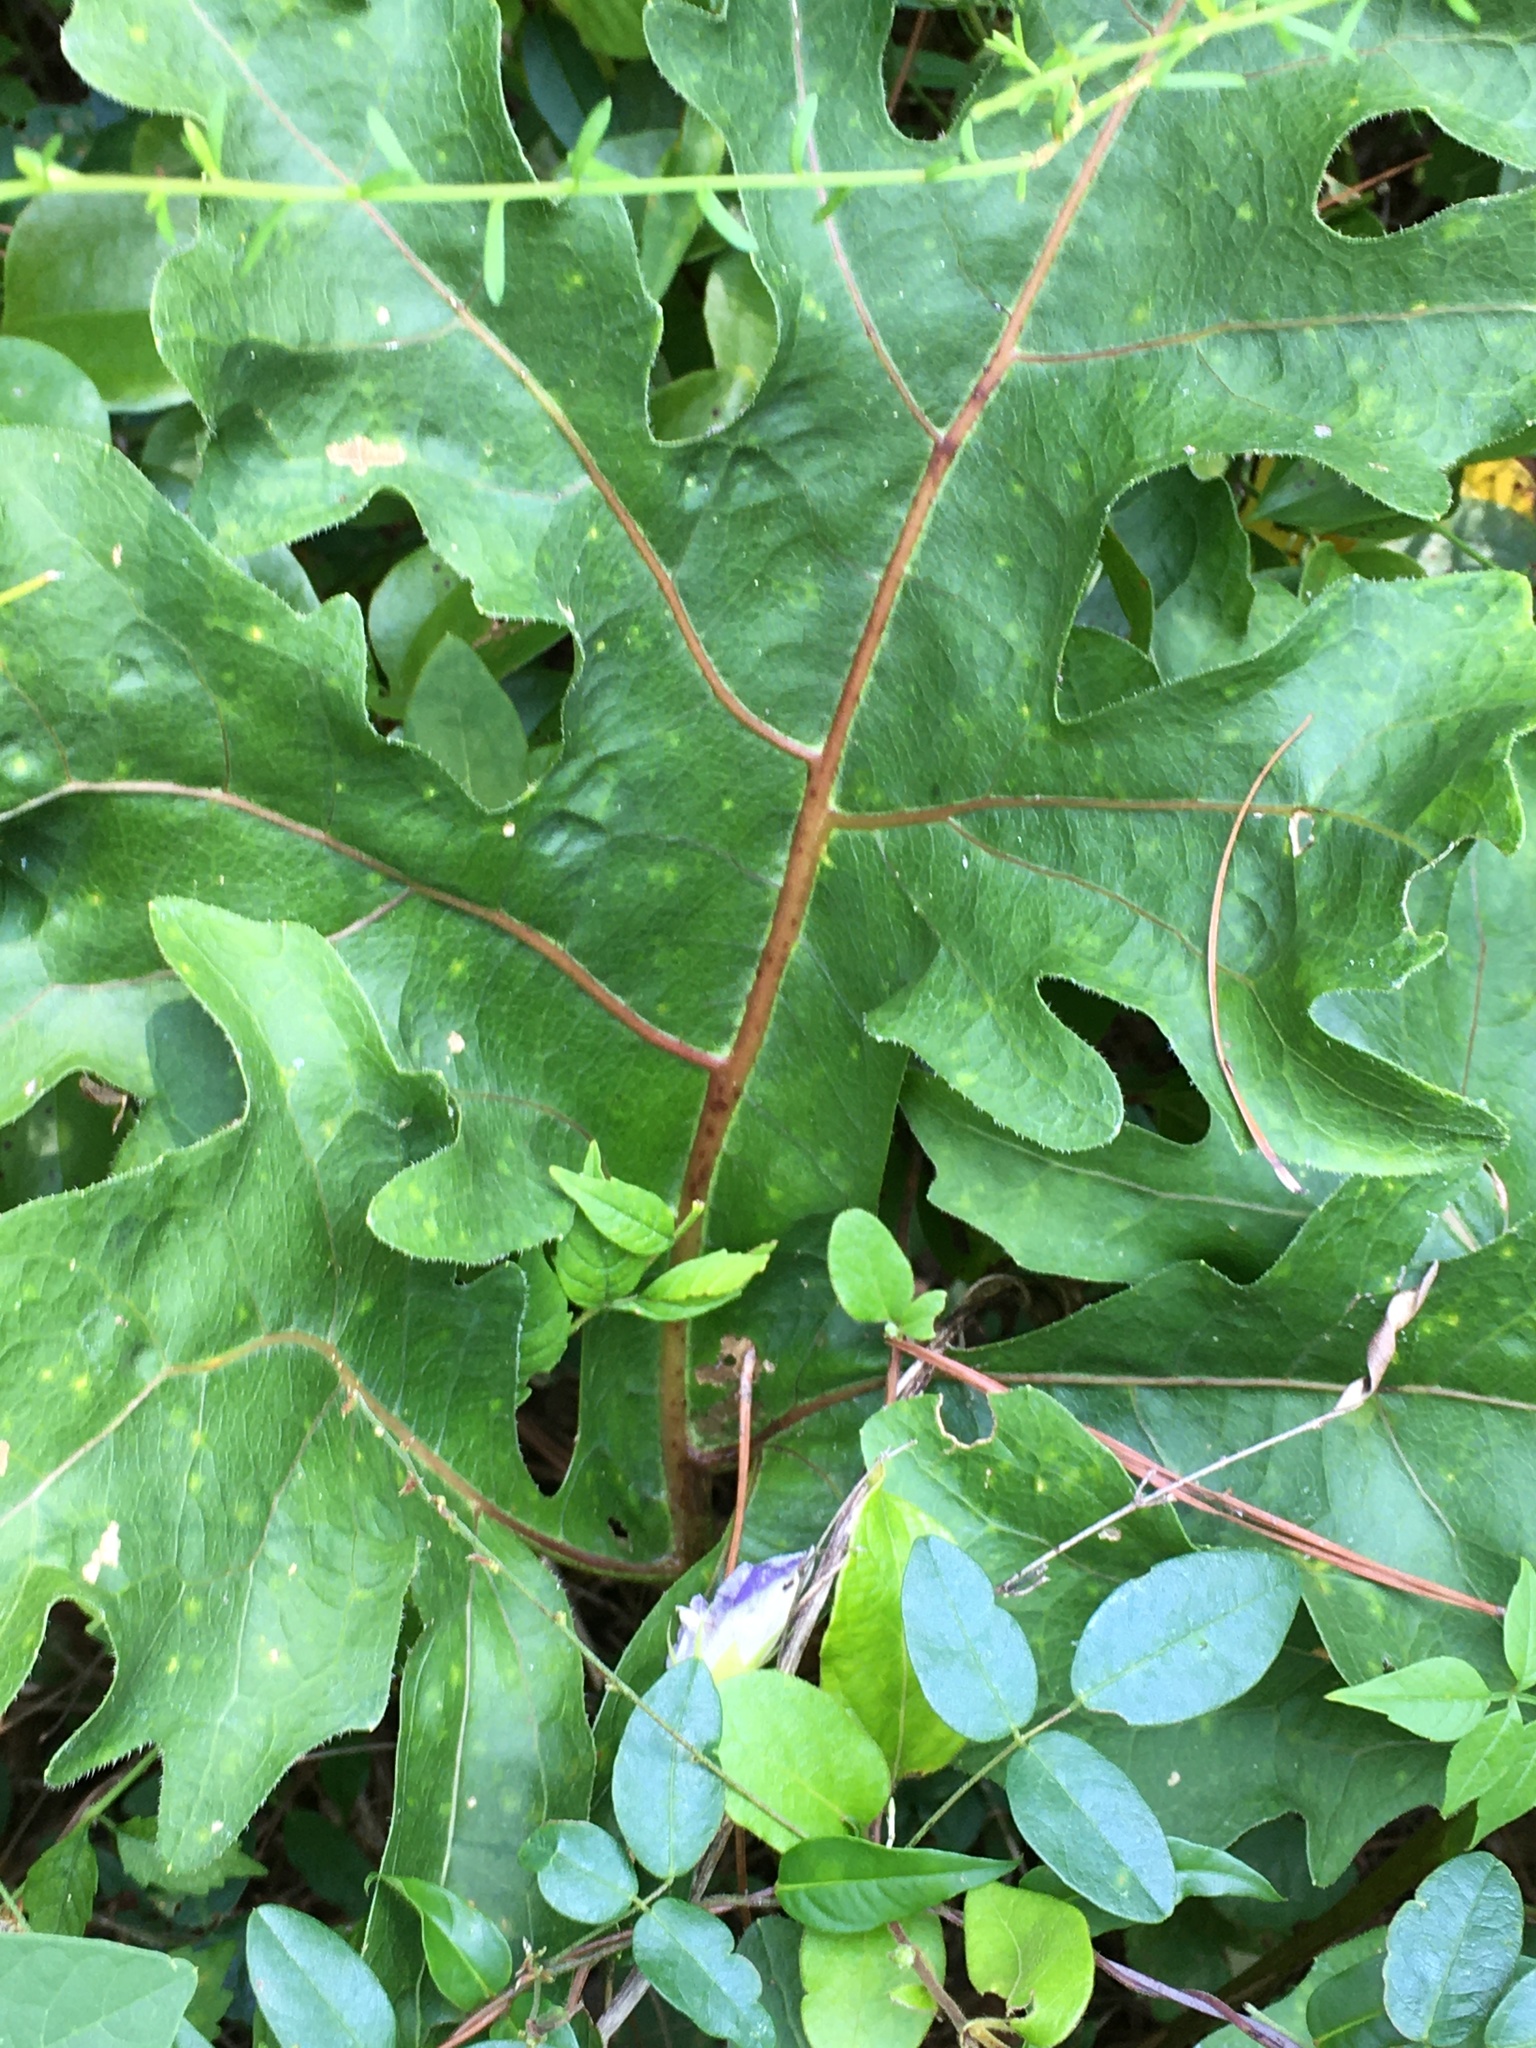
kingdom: Plantae
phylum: Tracheophyta
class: Magnoliopsida
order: Asterales
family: Asteraceae
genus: Silphium
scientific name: Silphium compositum
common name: Lesser basal-leaf rosinweed
